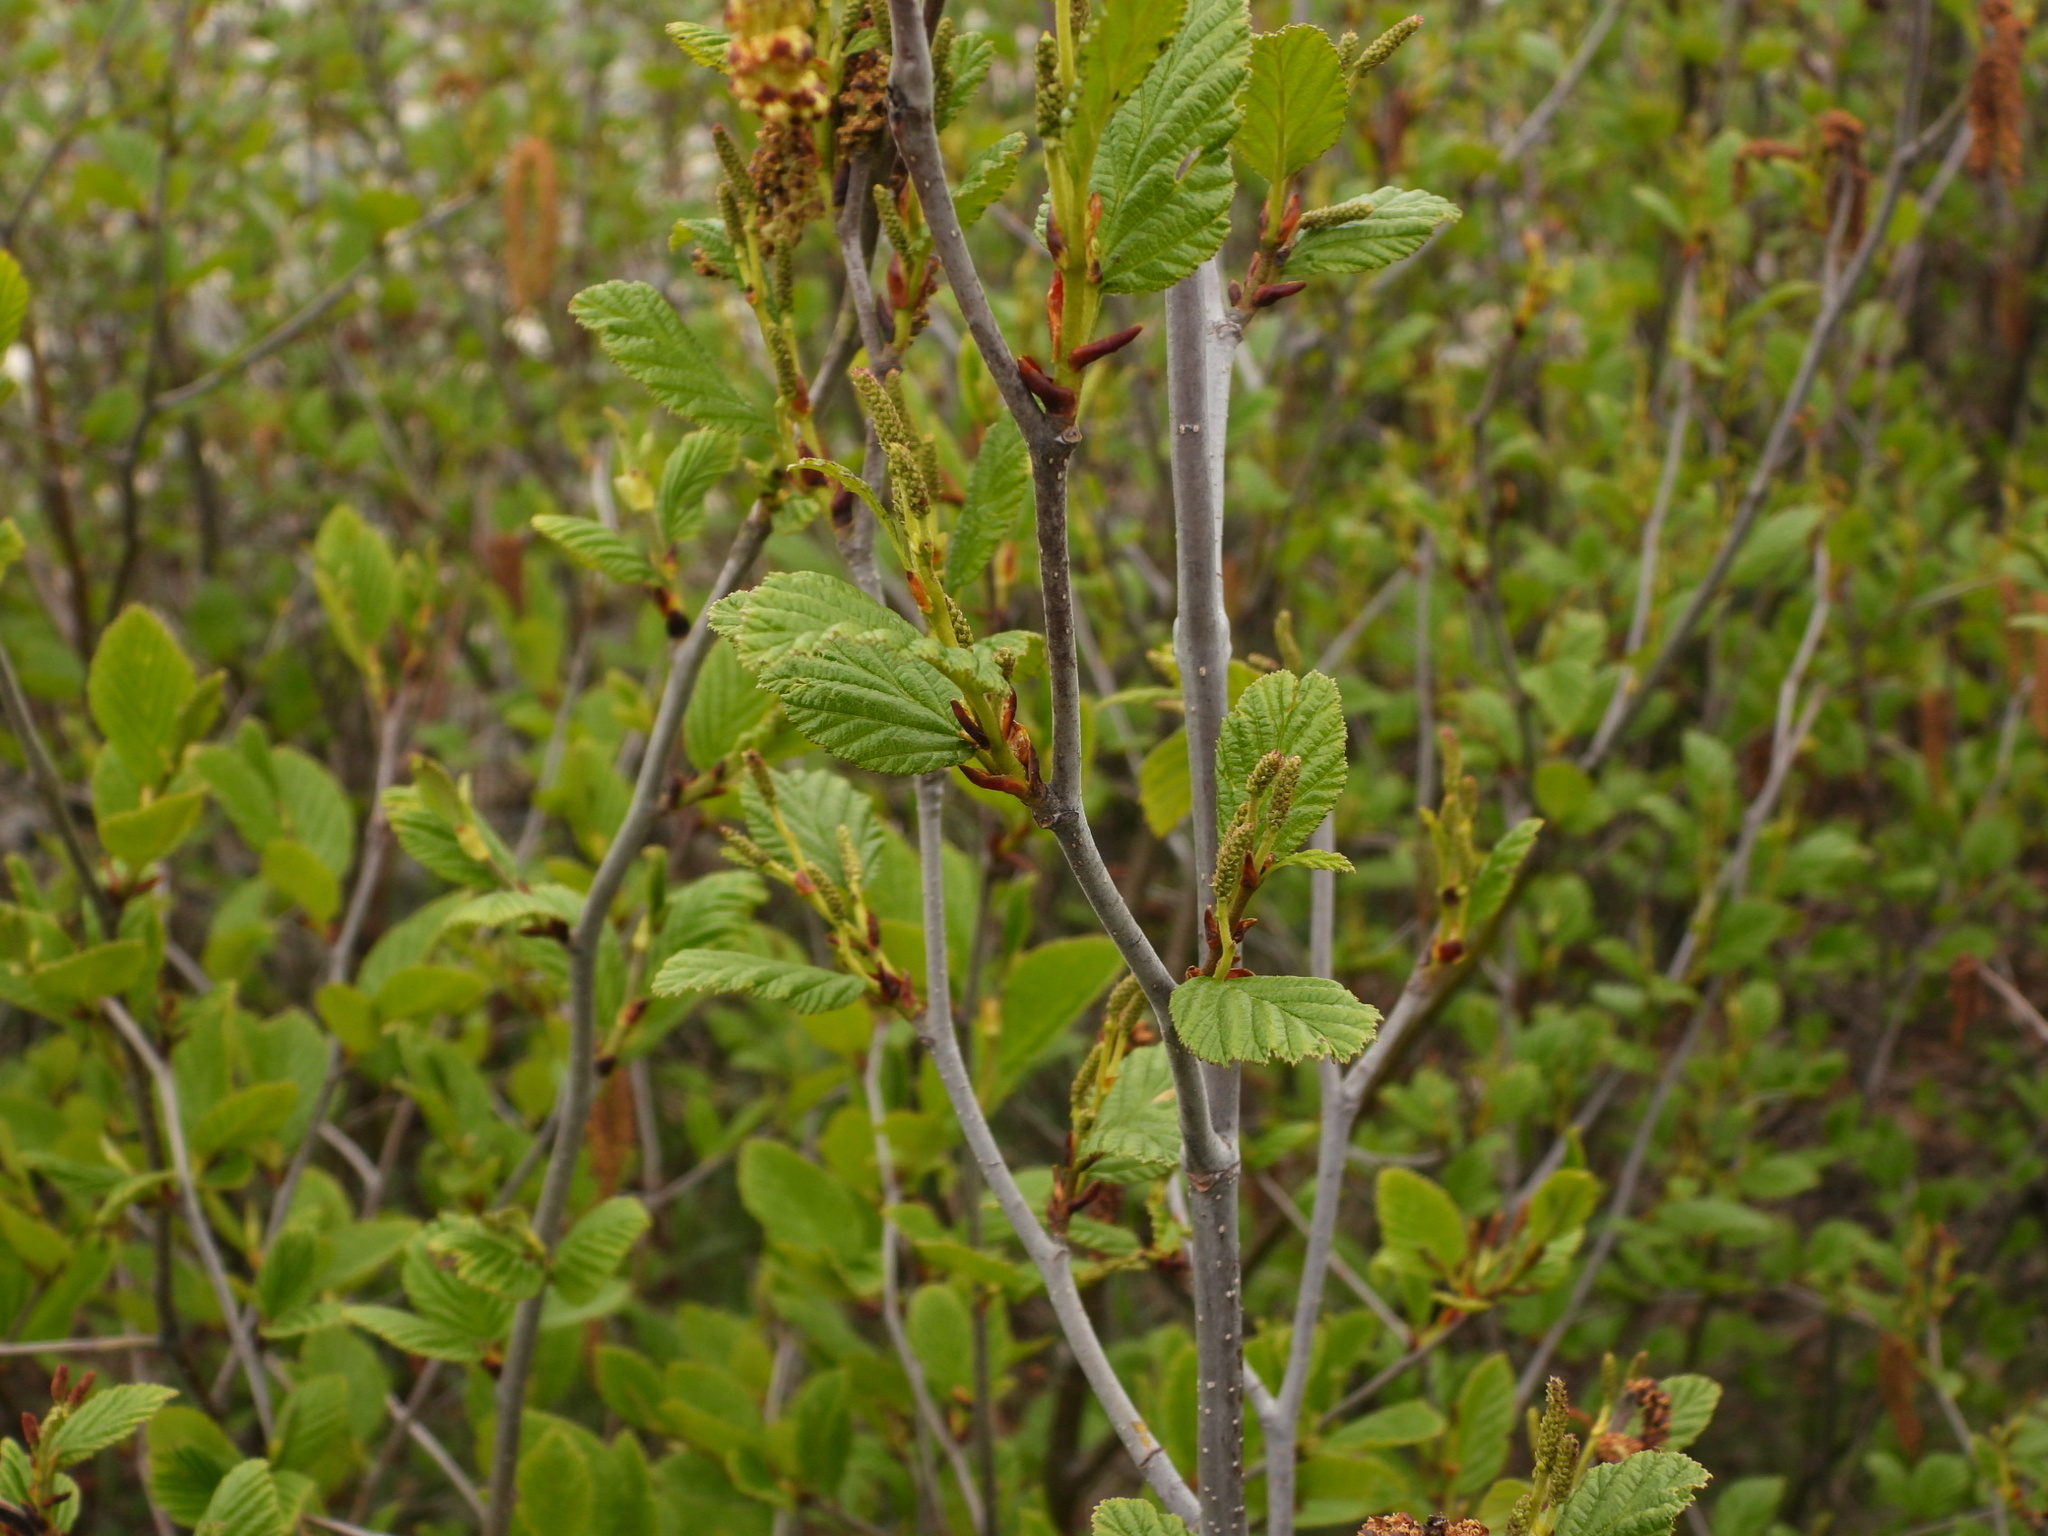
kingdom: Plantae
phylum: Tracheophyta
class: Magnoliopsida
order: Fagales
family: Betulaceae
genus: Alnus
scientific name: Alnus alnobetula
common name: Green alder
